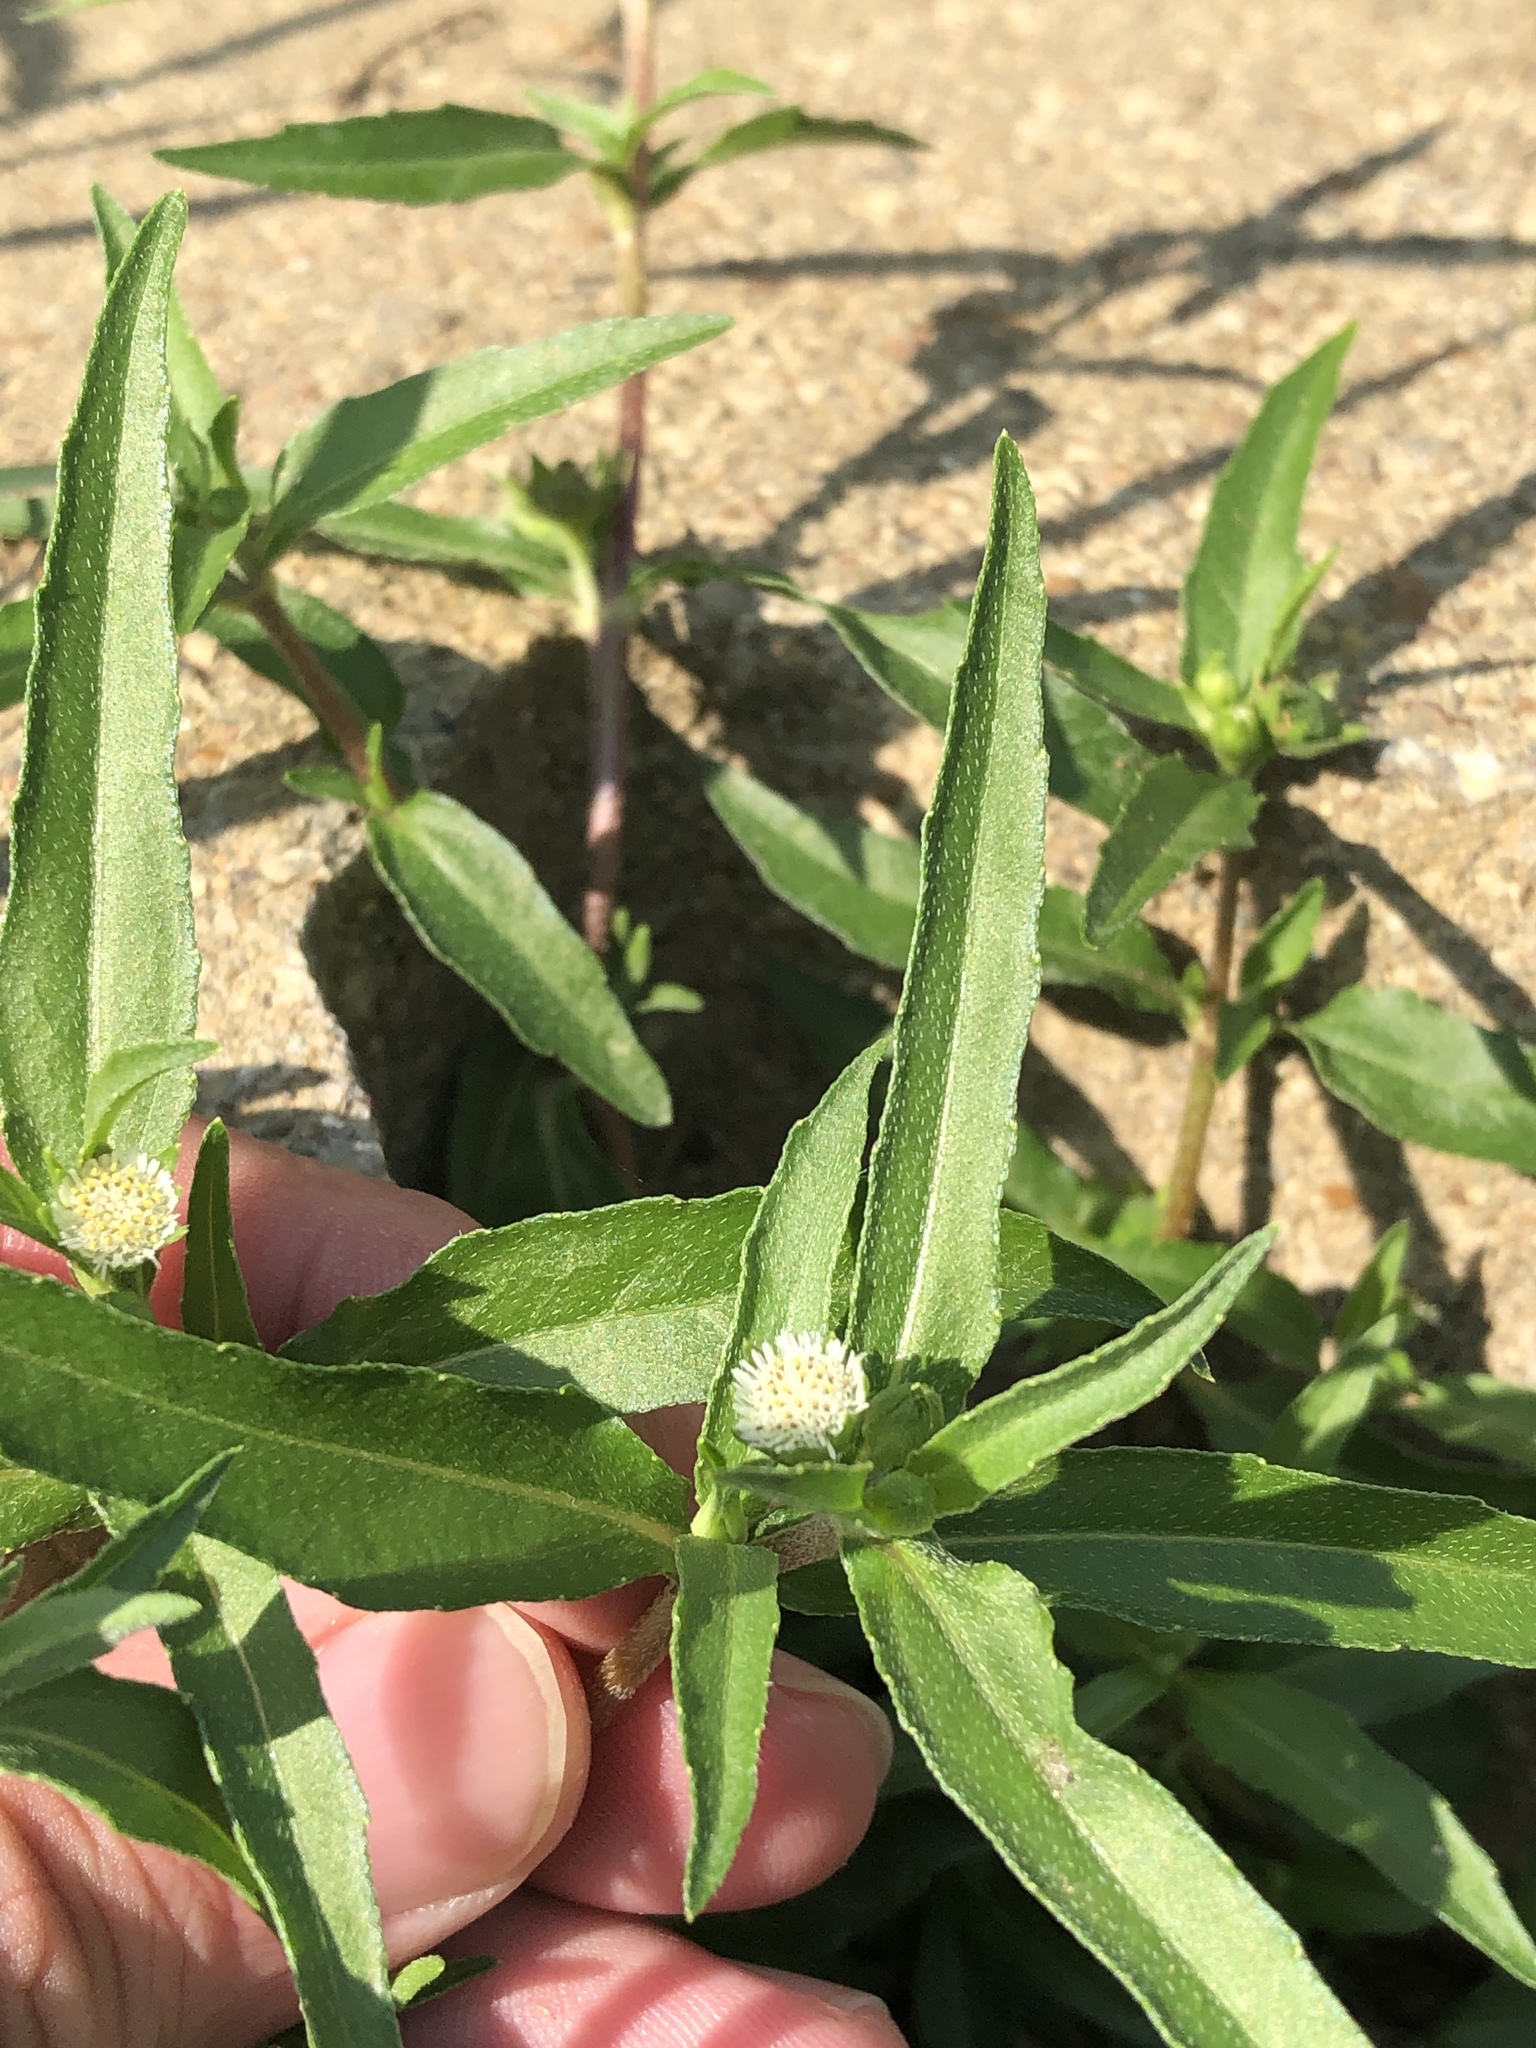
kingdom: Plantae
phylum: Tracheophyta
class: Magnoliopsida
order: Asterales
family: Asteraceae
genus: Eclipta
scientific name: Eclipta prostrata
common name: False daisy
